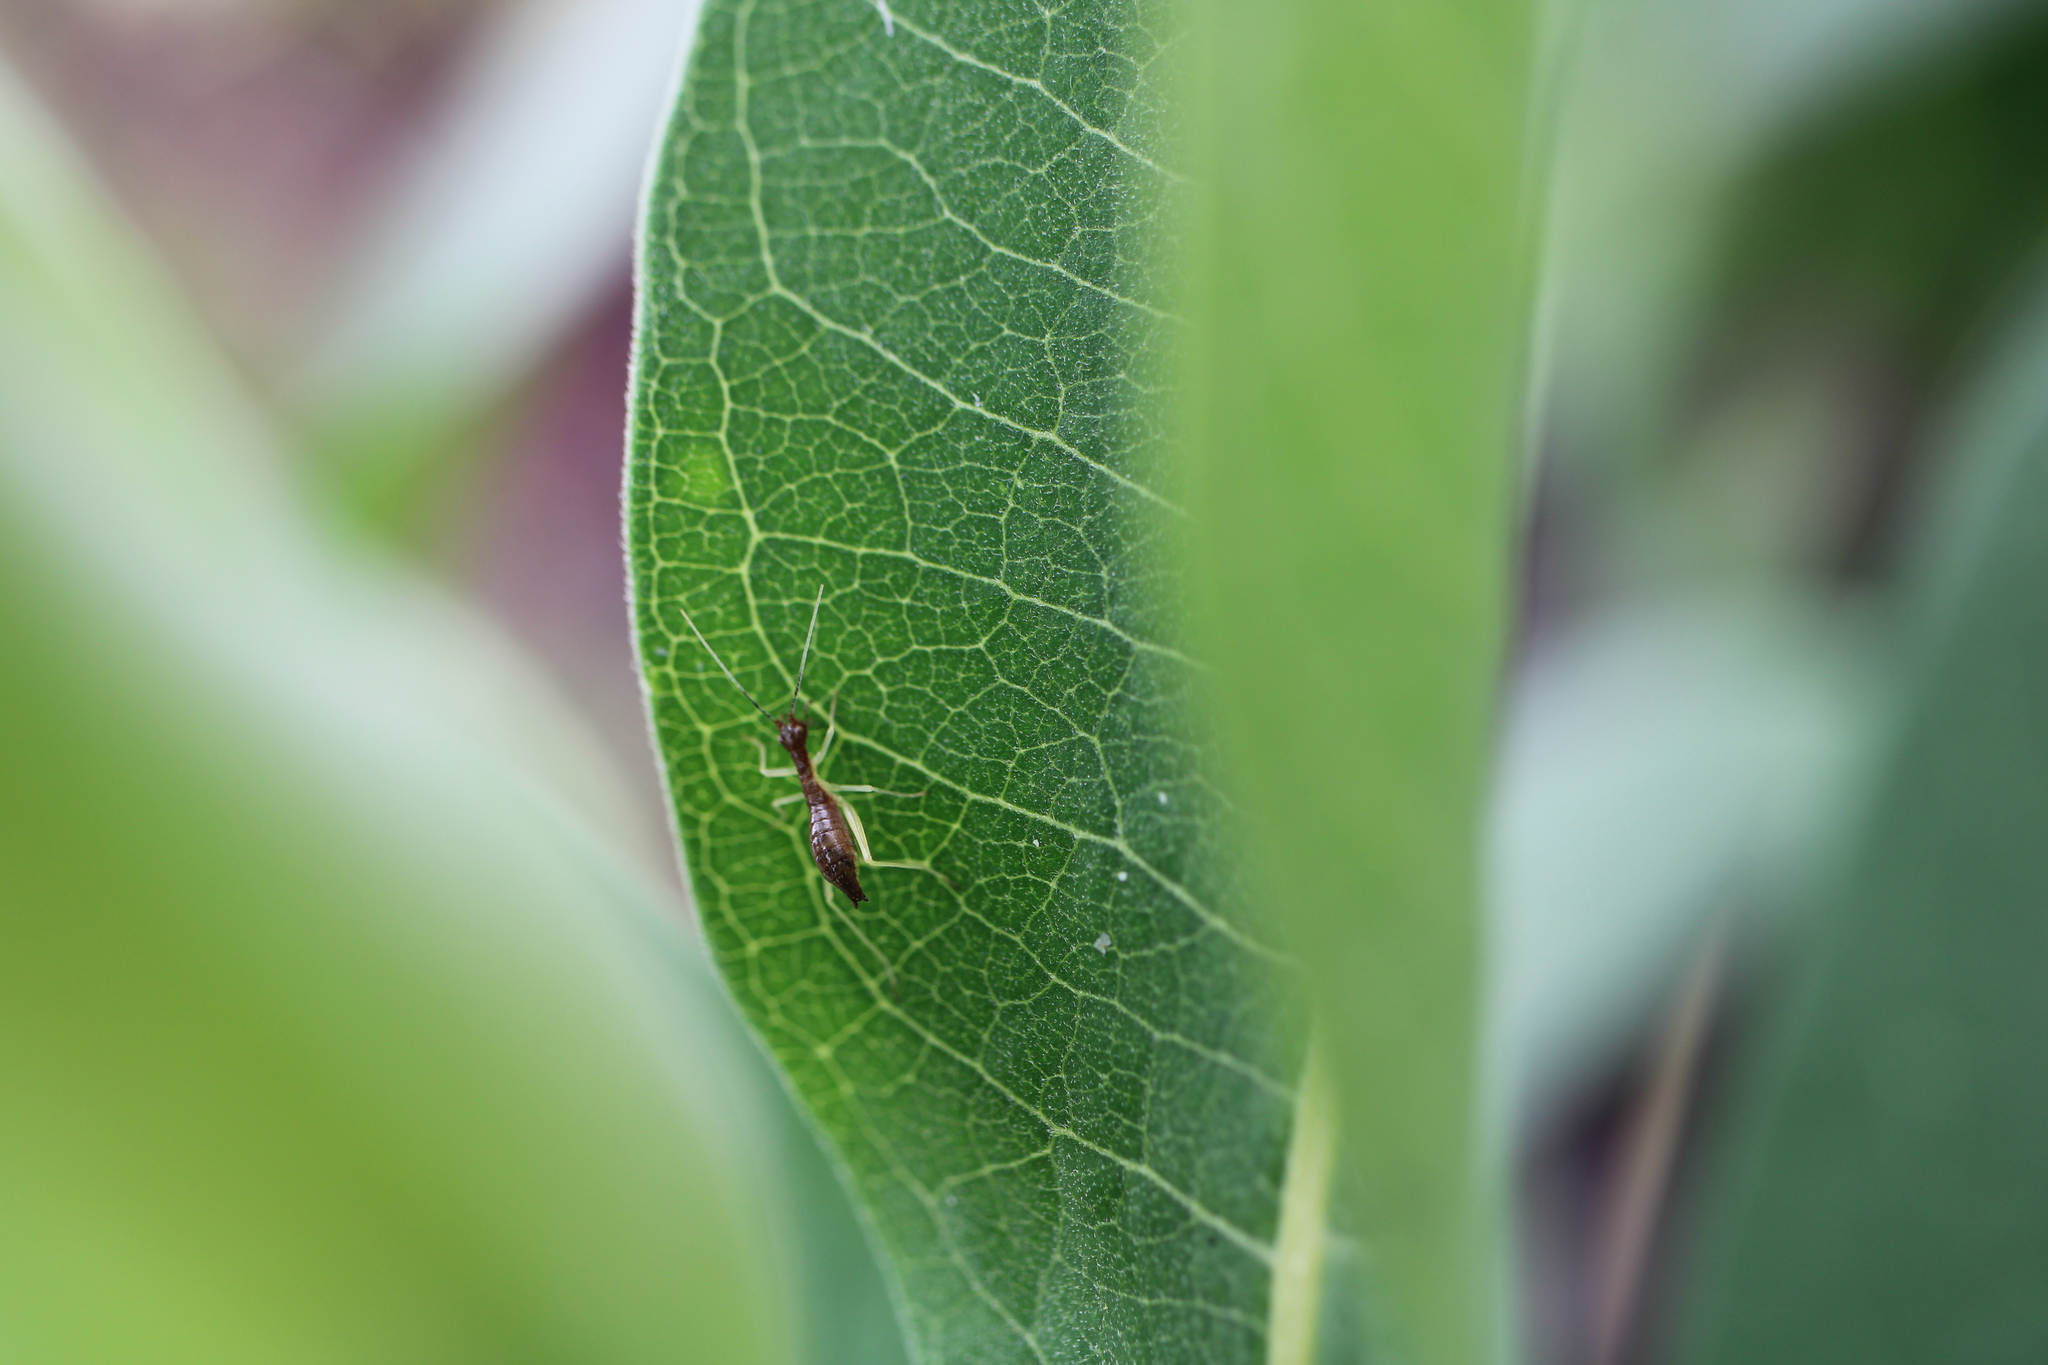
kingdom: Animalia
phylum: Arthropoda
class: Insecta
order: Orthoptera
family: Gryllidae
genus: Neoxabea
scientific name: Neoxabea bipunctata
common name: Two-spotted tree cricket
